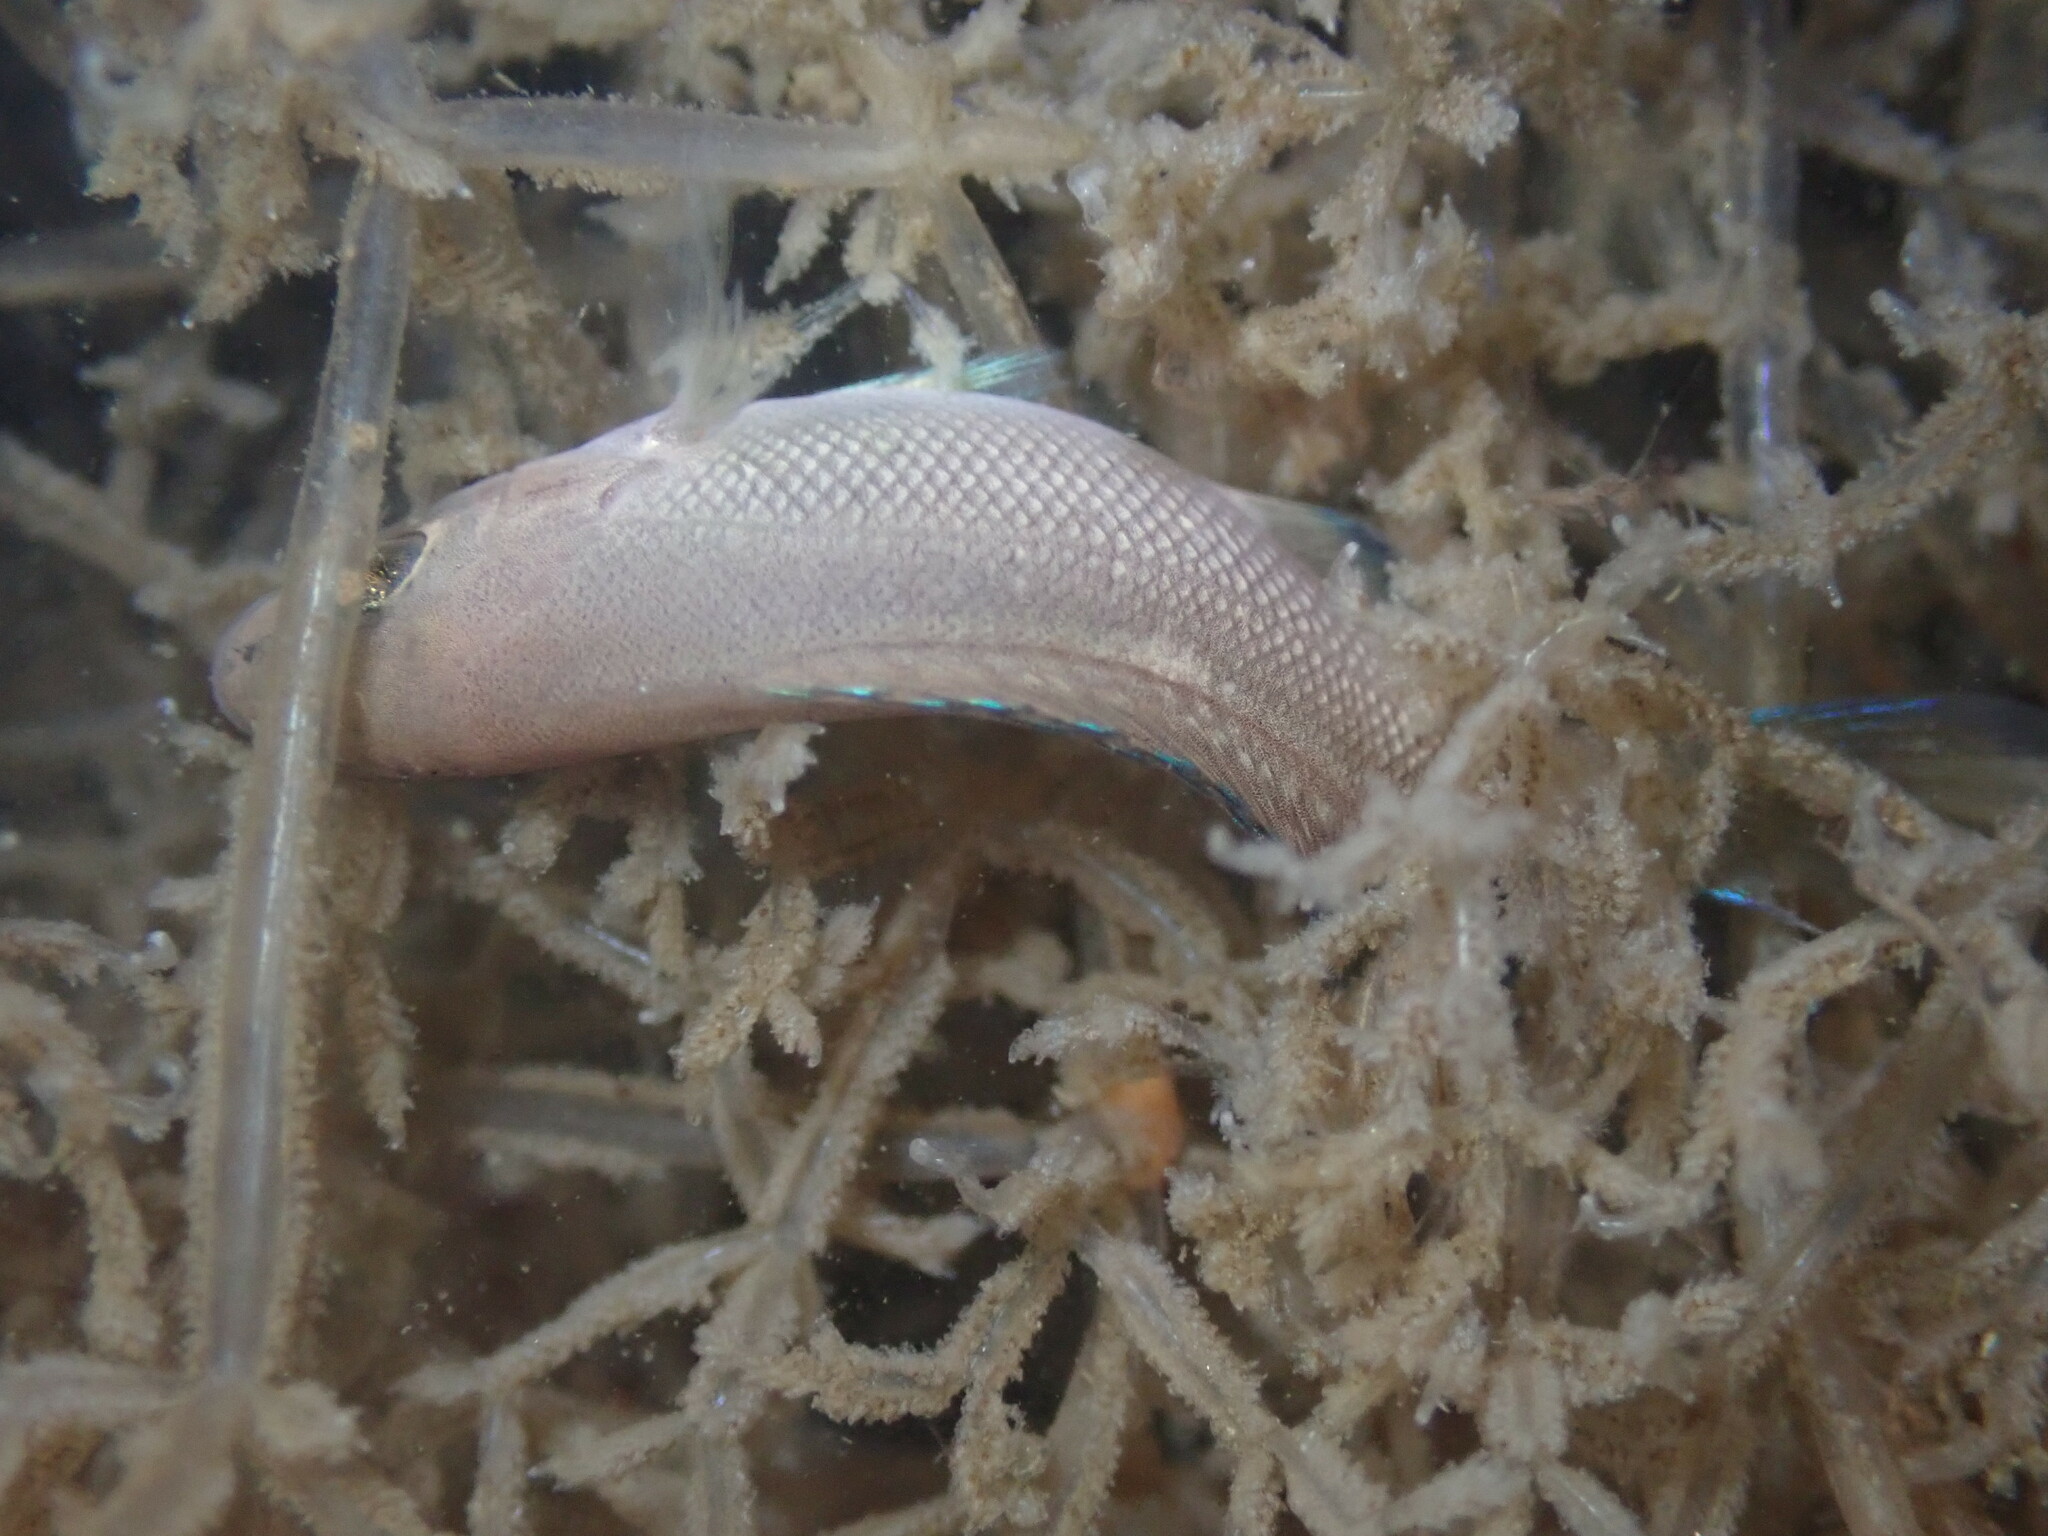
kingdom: Animalia
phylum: Chordata
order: Perciformes
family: Kyphosidae
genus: Girella
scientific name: Girella nigricans
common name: Opaleye
